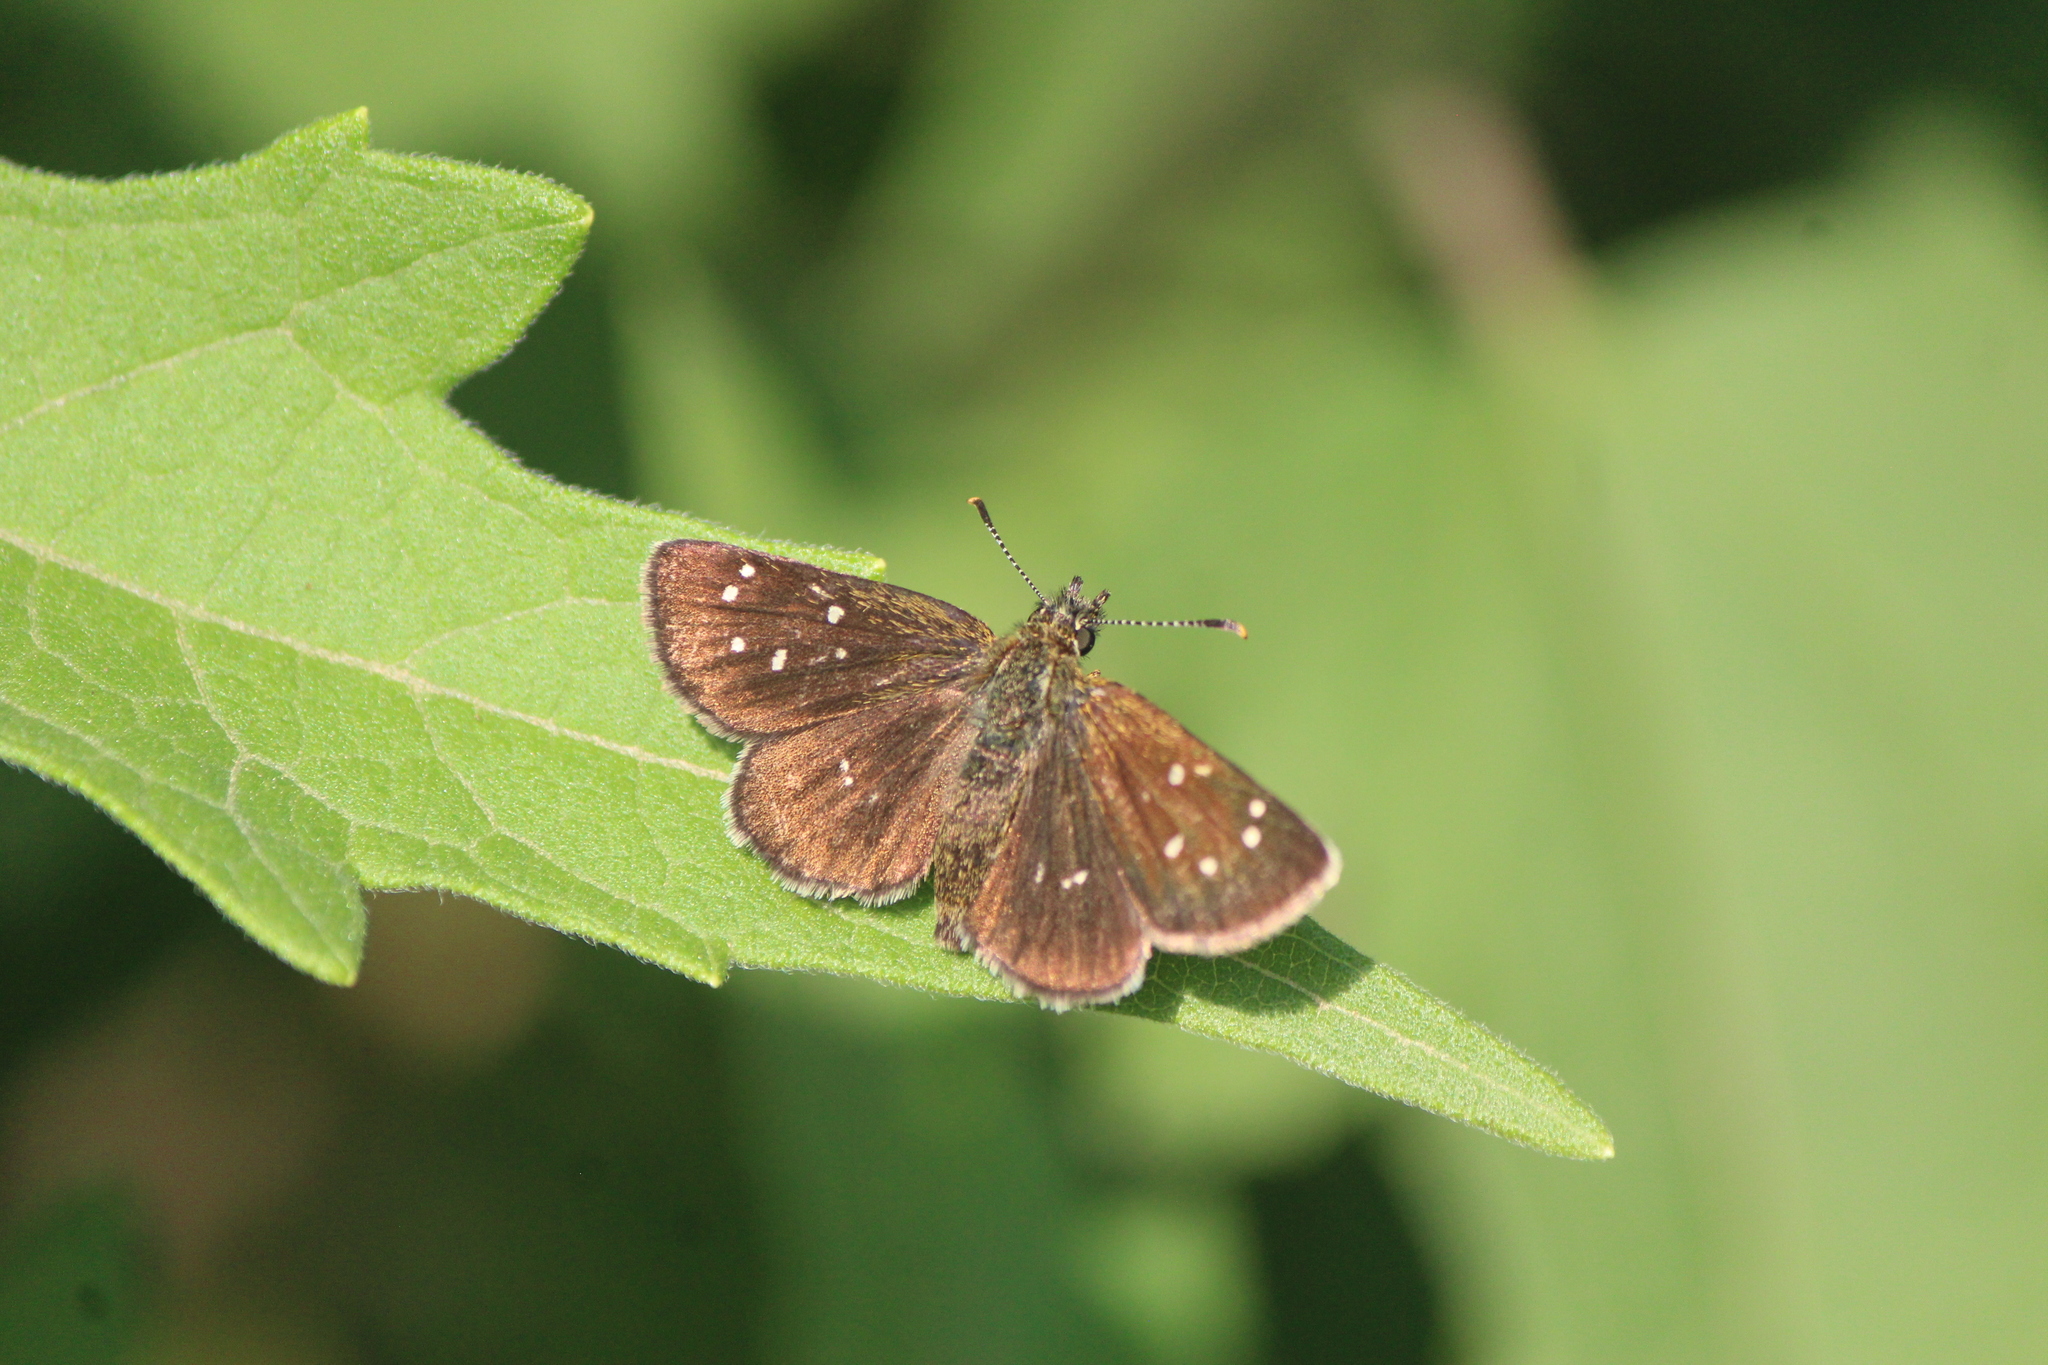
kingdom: Animalia
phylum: Arthropoda
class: Insecta
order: Lepidoptera
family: Hesperiidae
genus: Piruna
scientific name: Piruna aea
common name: Many-spotted skipperling
